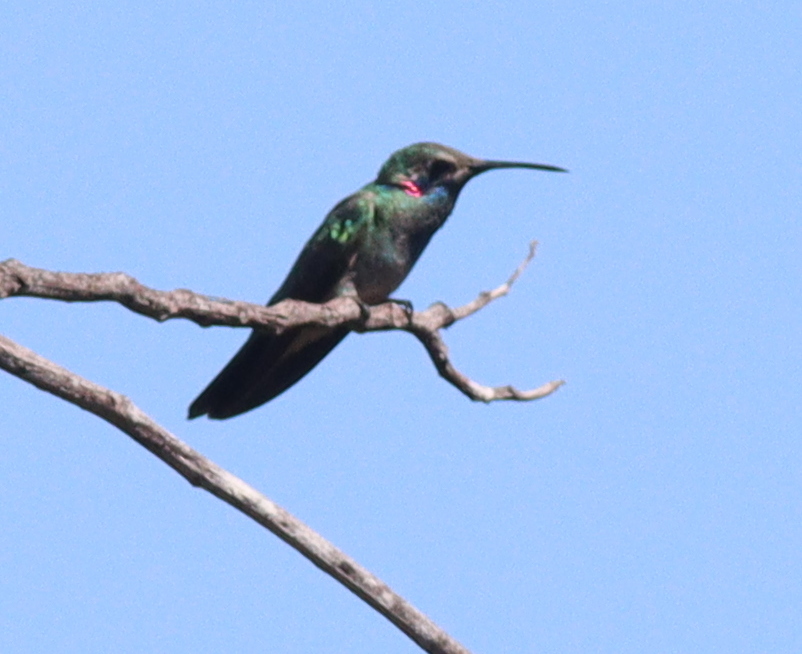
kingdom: Animalia
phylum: Chordata
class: Aves
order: Apodiformes
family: Trochilidae
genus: Colibri
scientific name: Colibri serrirostris
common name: White-vented violetear
